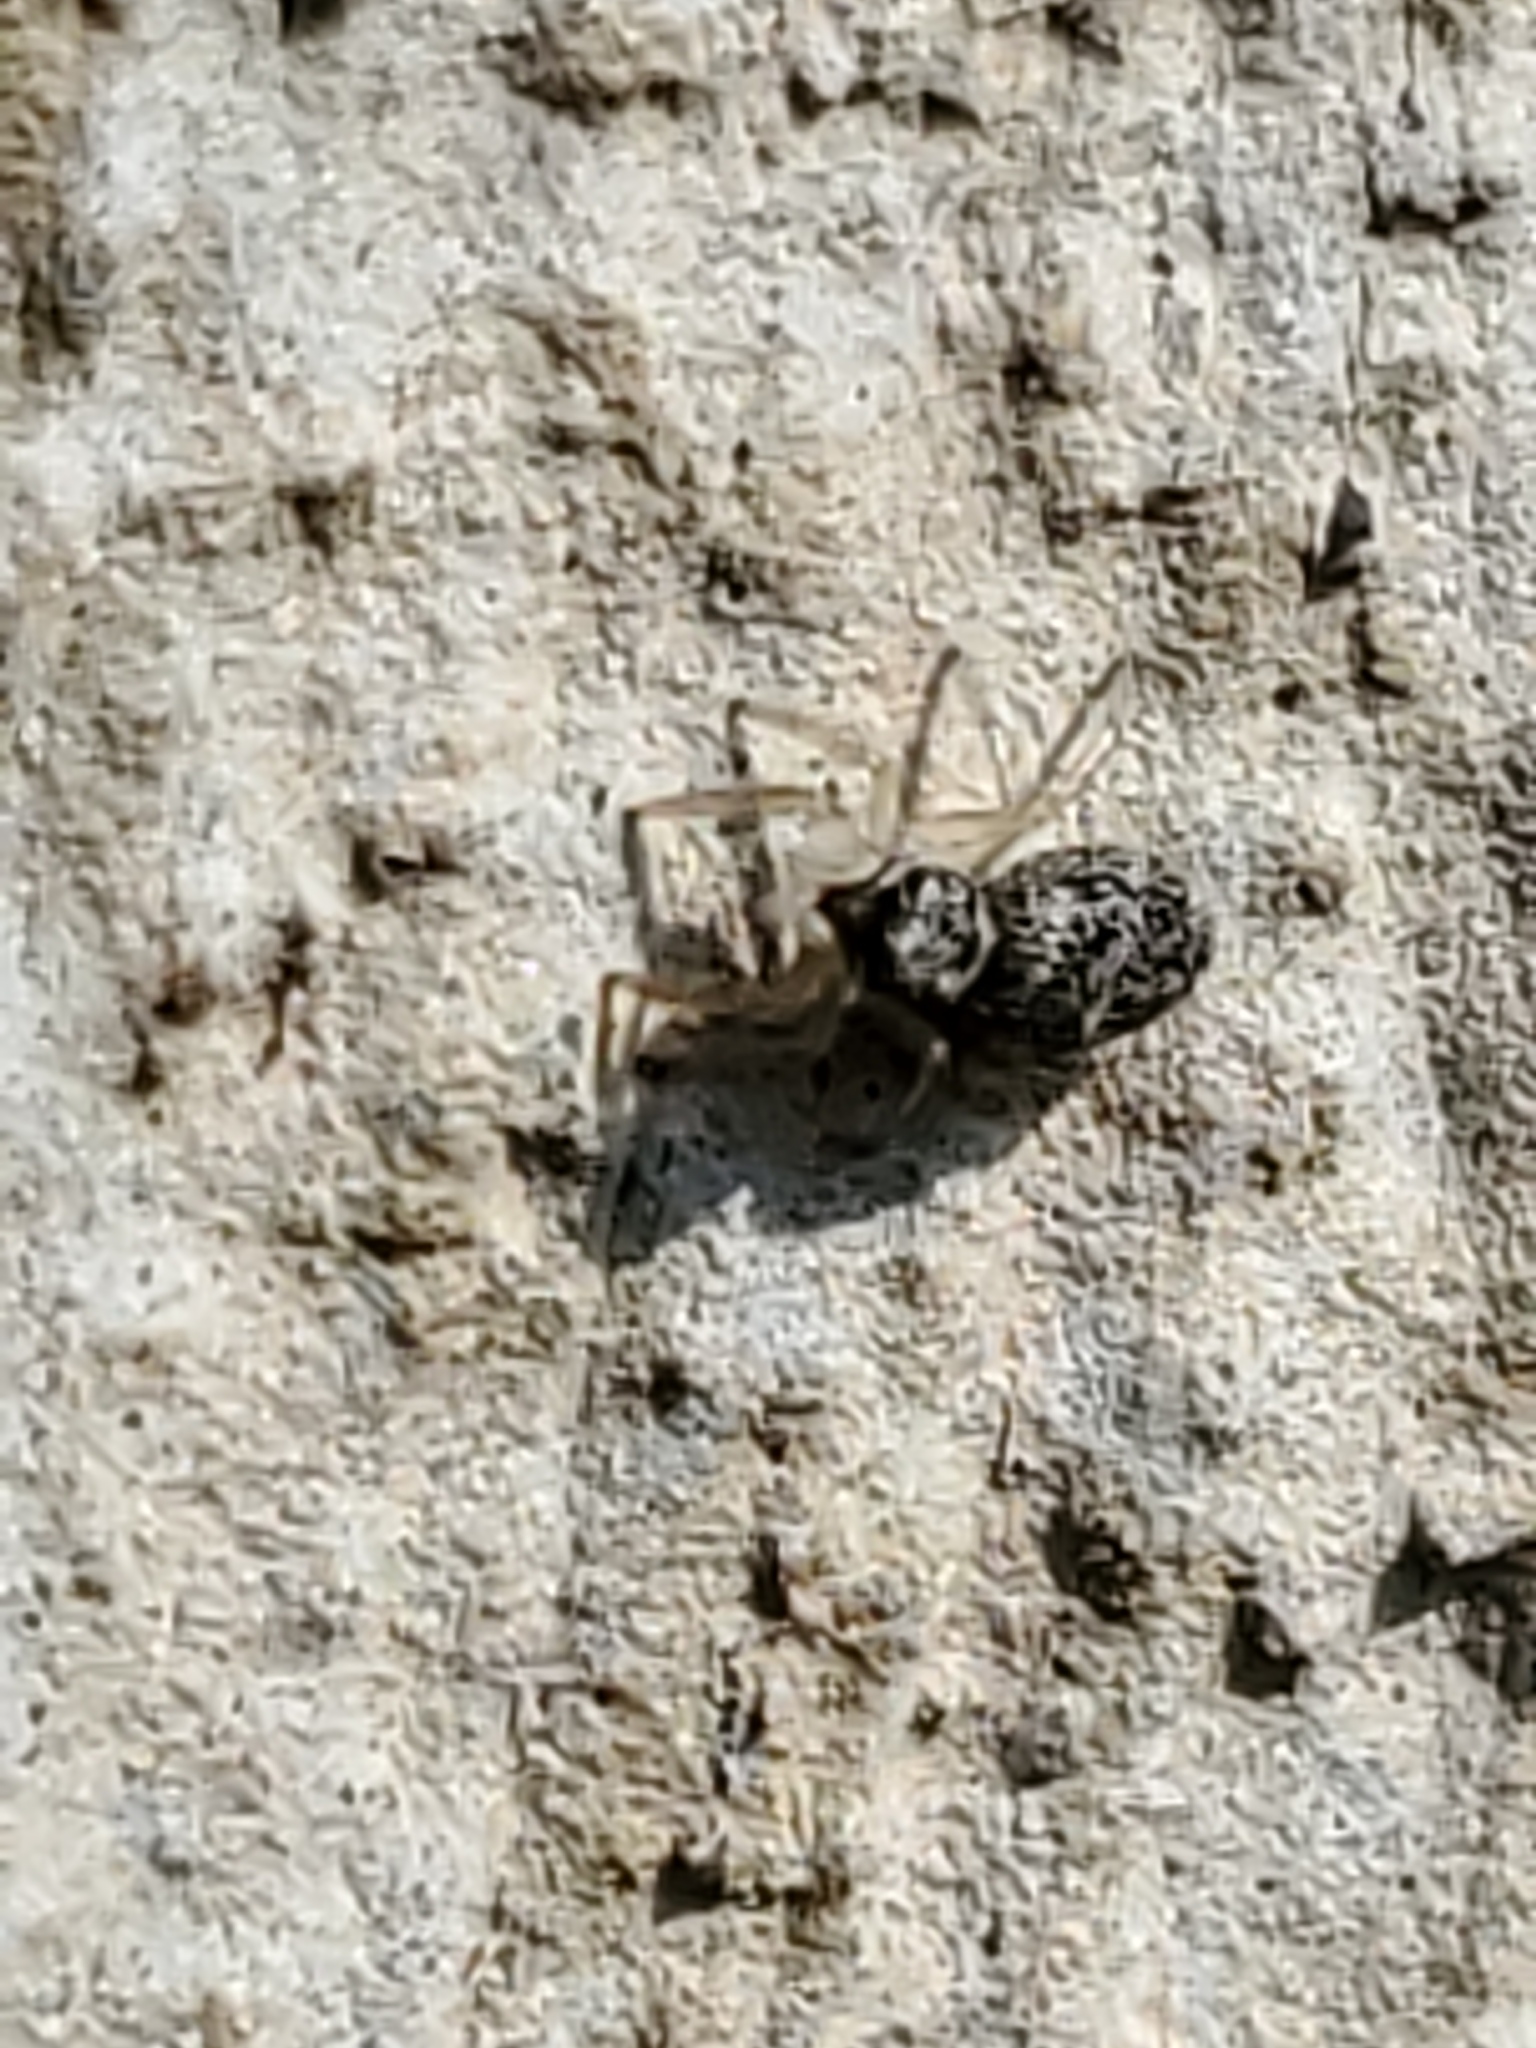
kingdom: Animalia
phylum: Arthropoda
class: Arachnida
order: Araneae
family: Salticidae
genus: Salticus
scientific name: Salticus scenicus
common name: Zebra jumper
